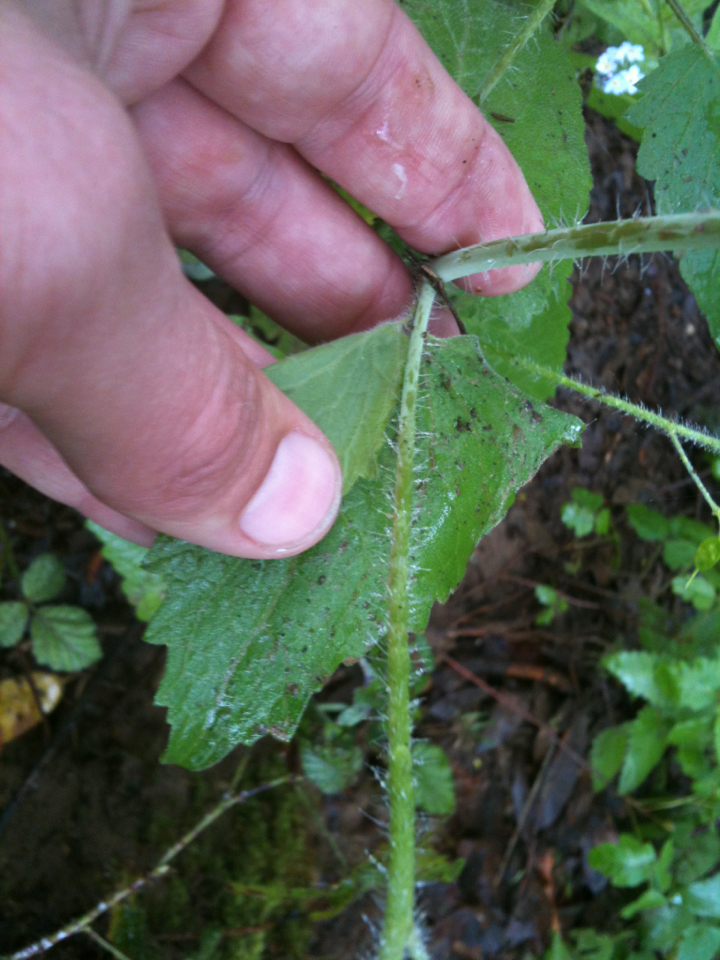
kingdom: Plantae
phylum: Tracheophyta
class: Magnoliopsida
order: Brassicales
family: Brassicaceae
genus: Lunaria
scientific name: Lunaria annua
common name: Honesty
